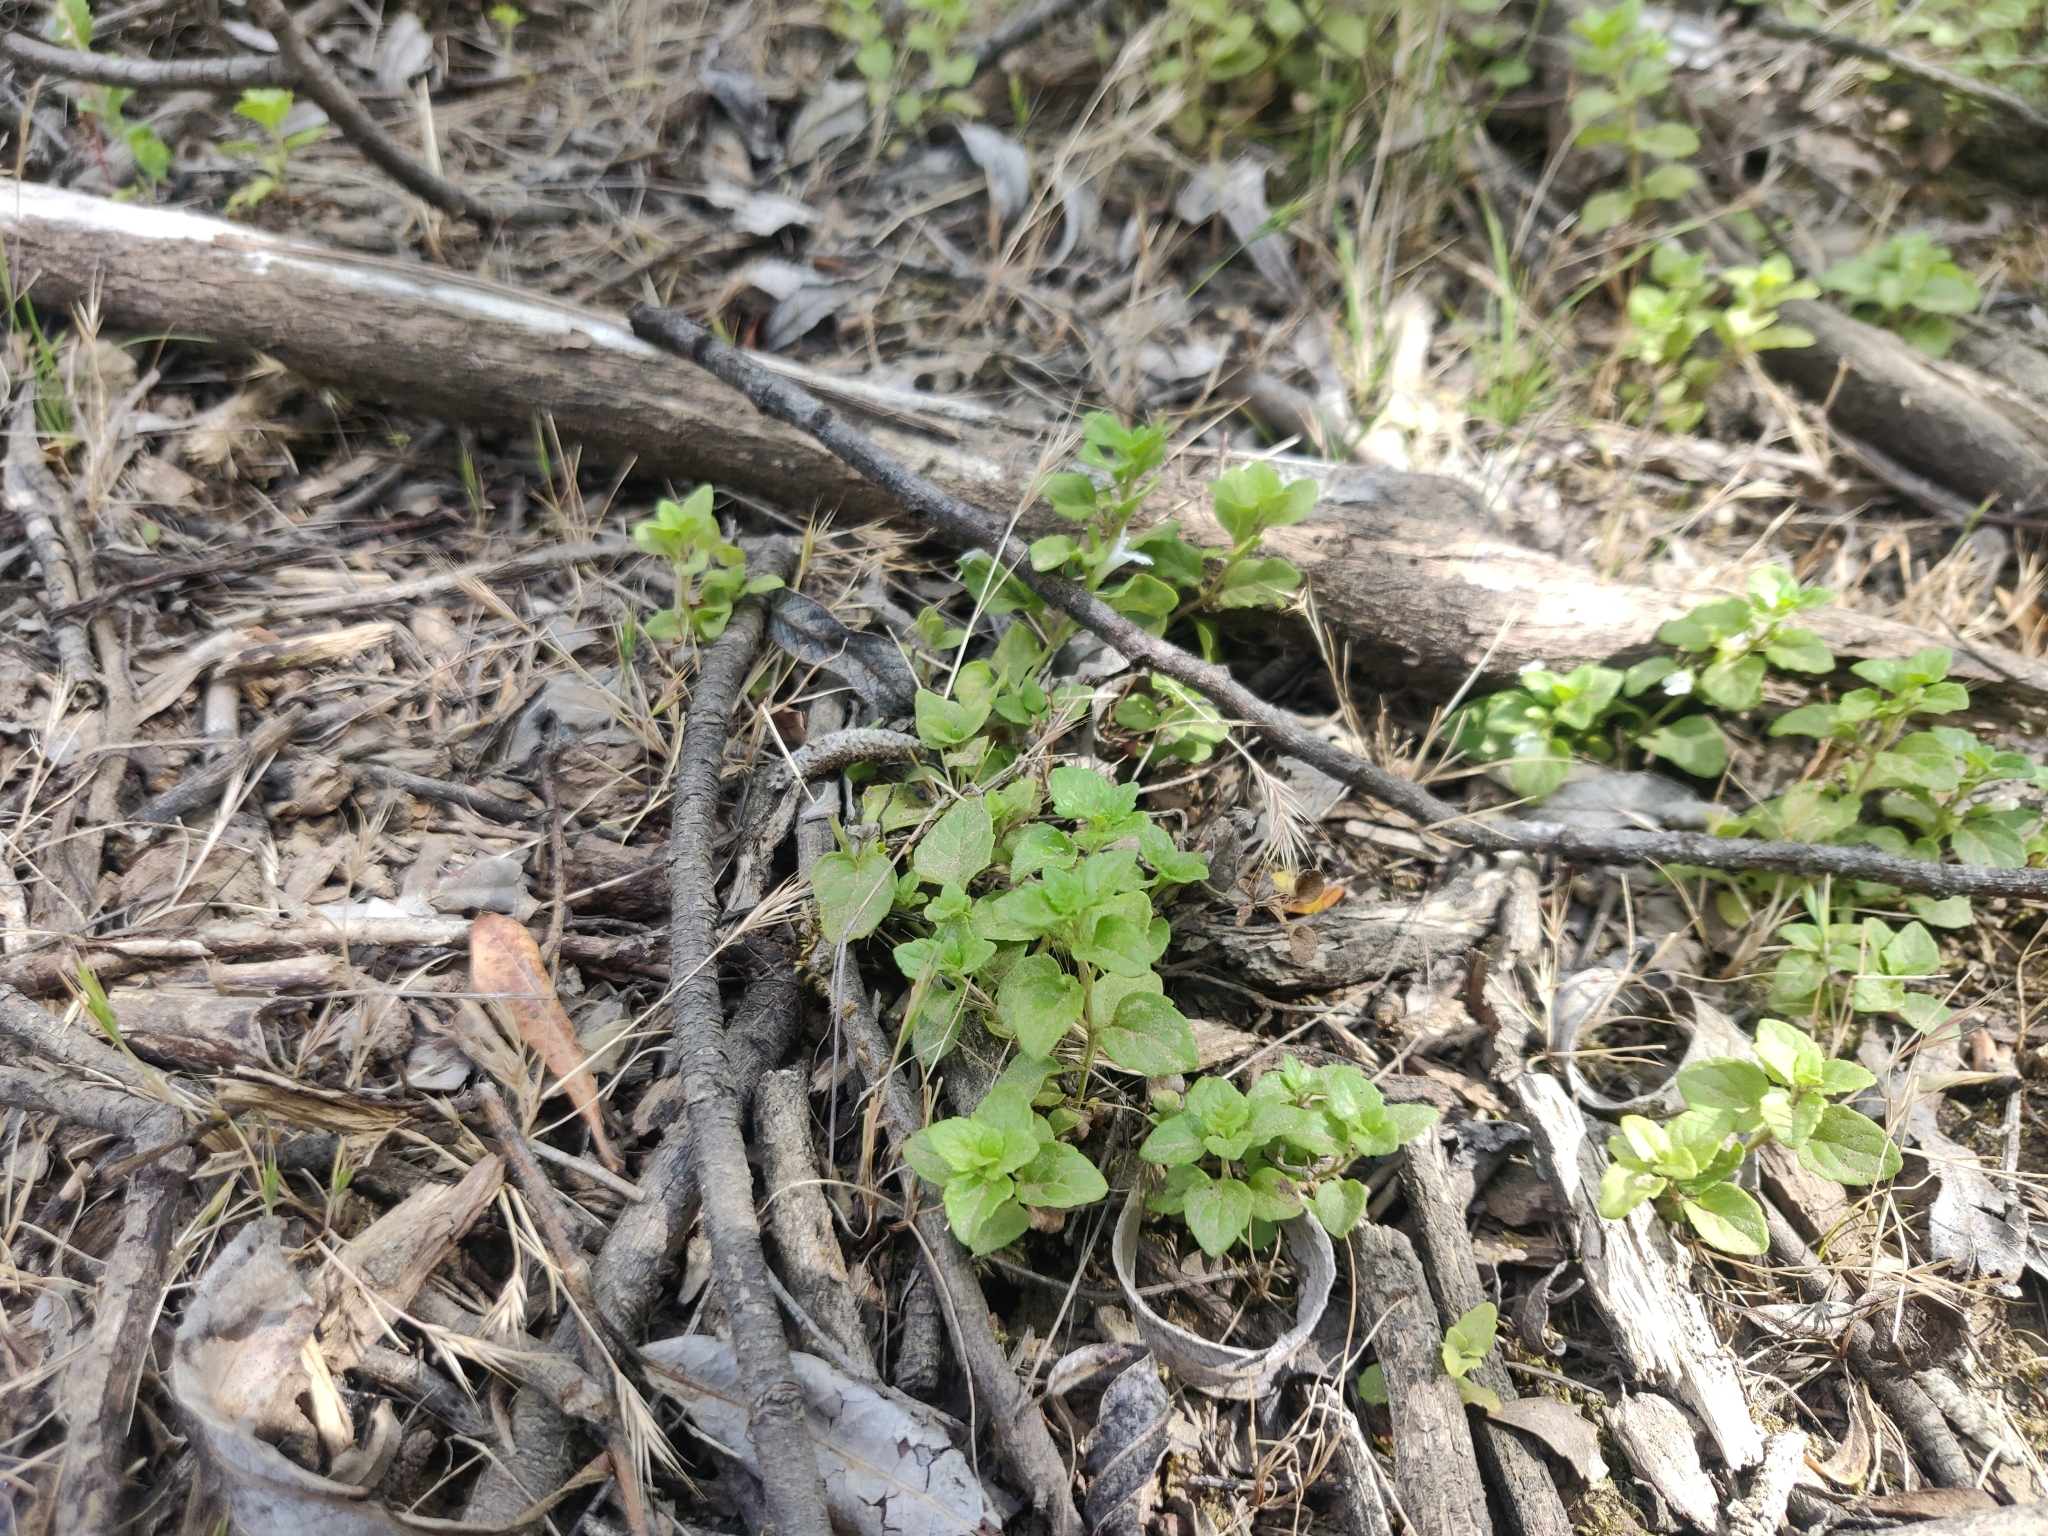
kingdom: Plantae
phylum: Tracheophyta
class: Magnoliopsida
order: Lamiales
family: Lamiaceae
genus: Micromeria
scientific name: Micromeria douglasii
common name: Yerba buena
